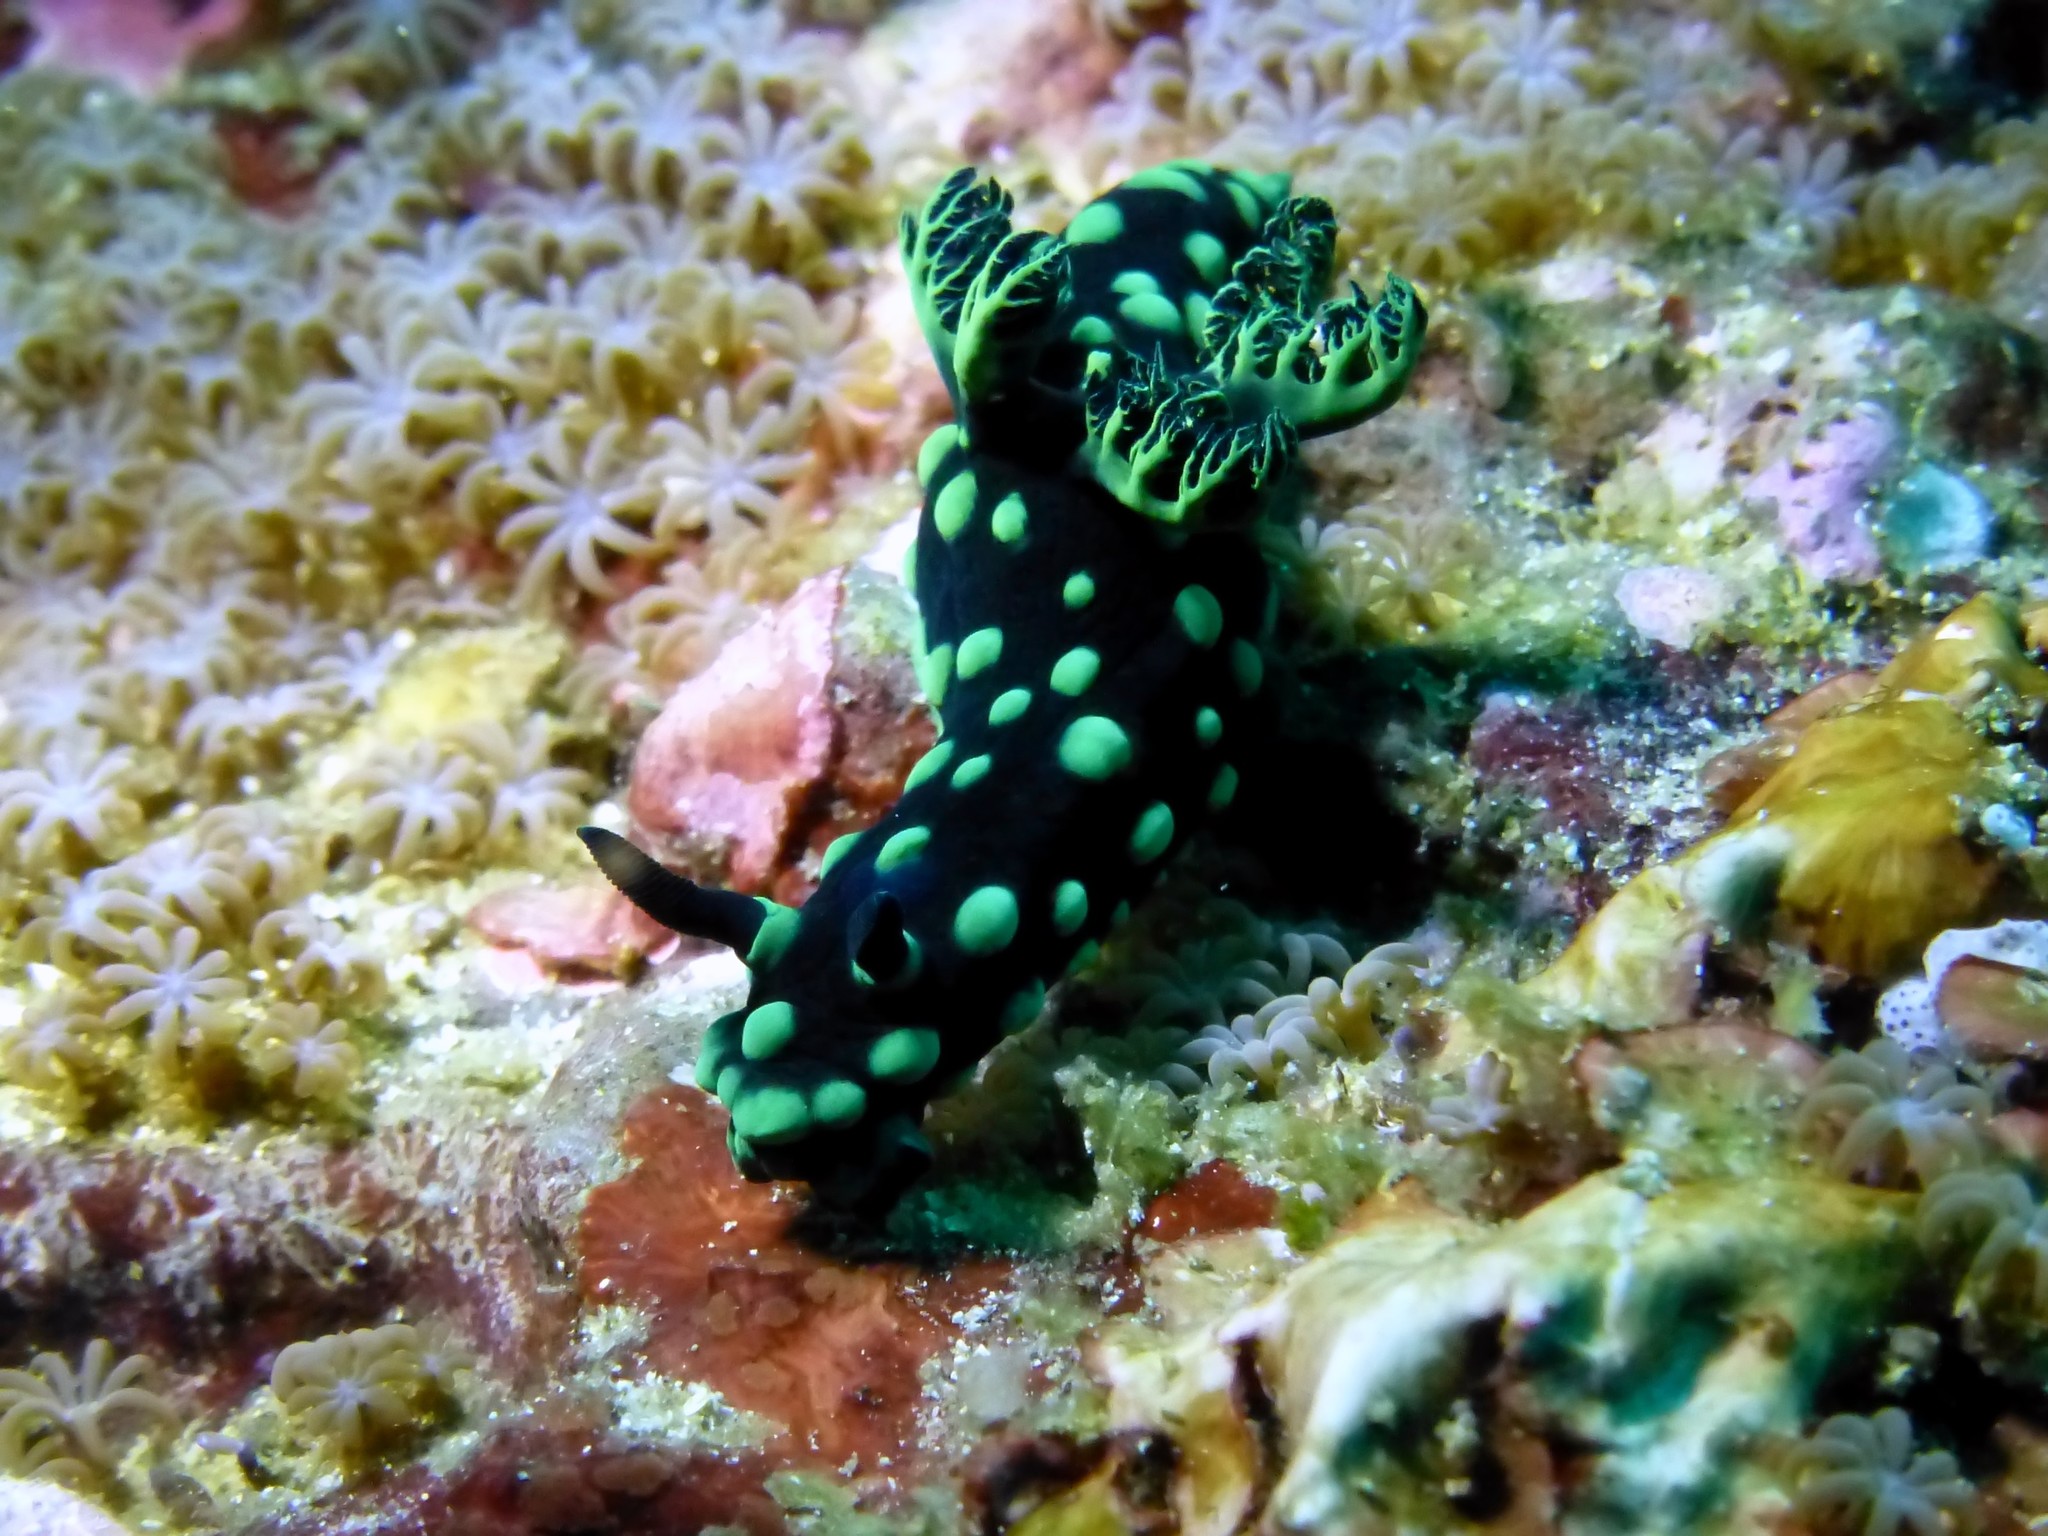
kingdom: Animalia
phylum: Mollusca
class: Gastropoda
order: Nudibranchia
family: Polyceridae
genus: Nembrotha
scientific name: Nembrotha cristata
